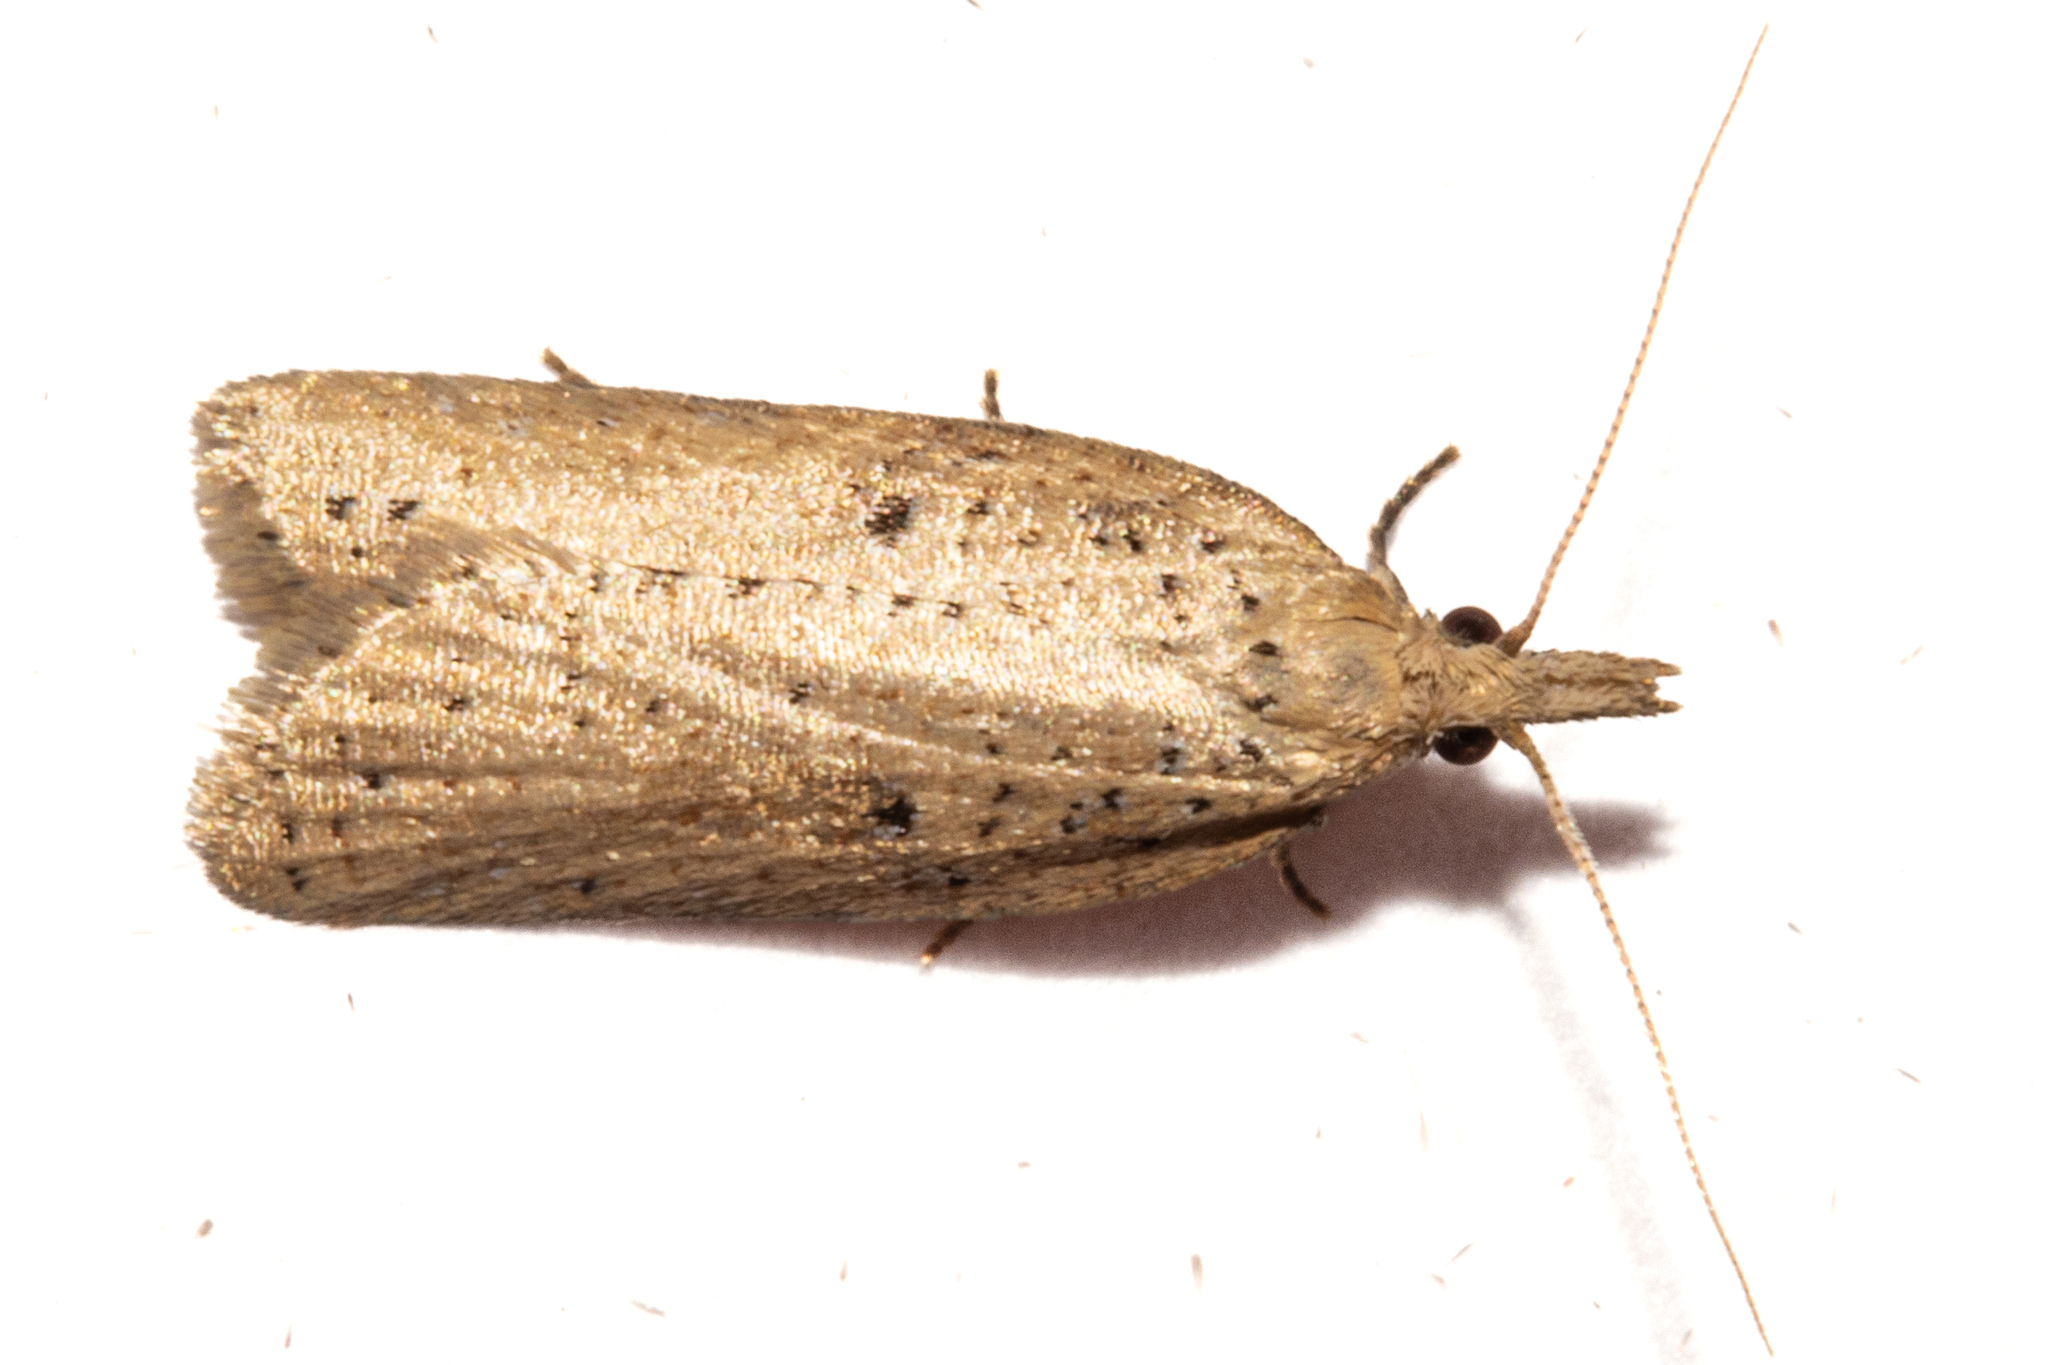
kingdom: Animalia
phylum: Arthropoda
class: Insecta
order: Lepidoptera
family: Tortricidae
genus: Apoctena
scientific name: Apoctena persecta
